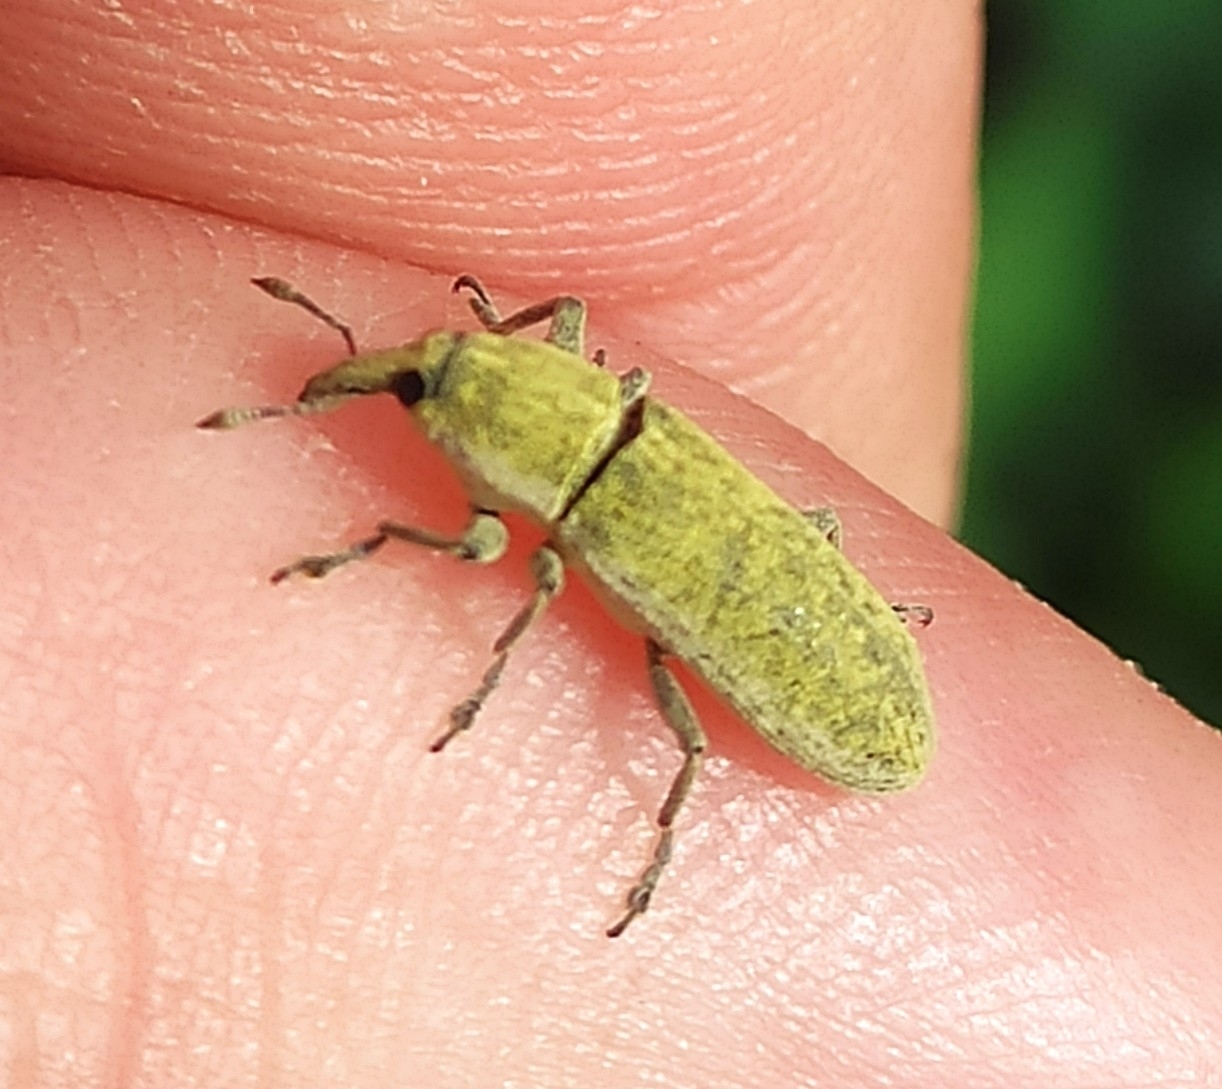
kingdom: Animalia
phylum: Arthropoda
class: Insecta
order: Coleoptera
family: Curculionidae
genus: Lixus
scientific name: Lixus rubicundus
